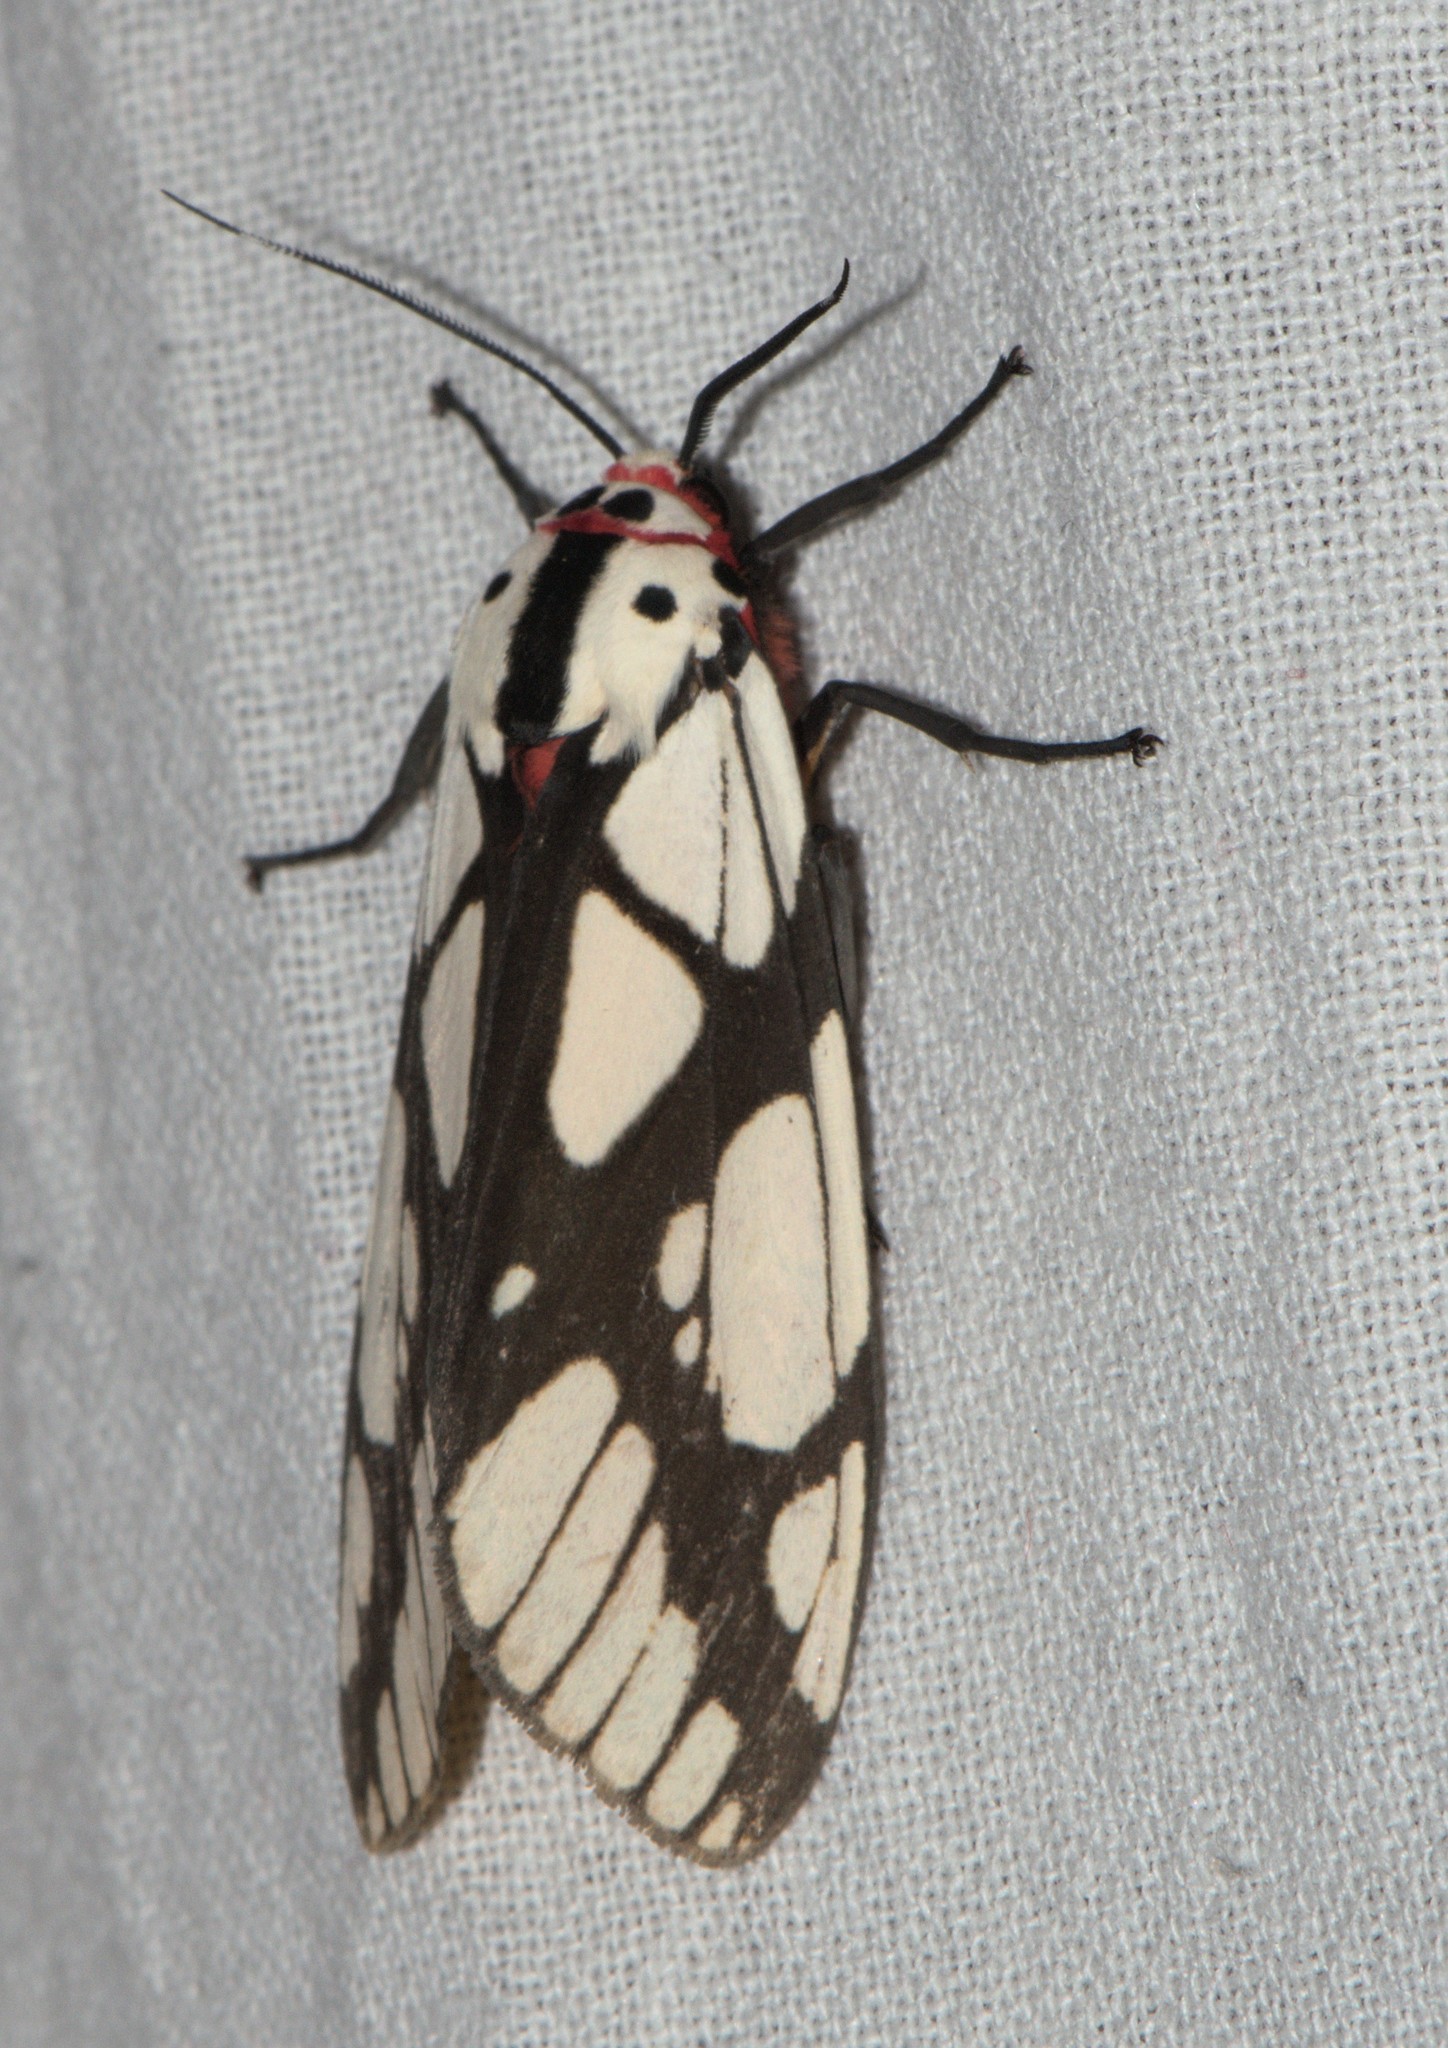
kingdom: Animalia
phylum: Arthropoda
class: Insecta
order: Lepidoptera
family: Erebidae
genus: Areas
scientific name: Areas galactina
